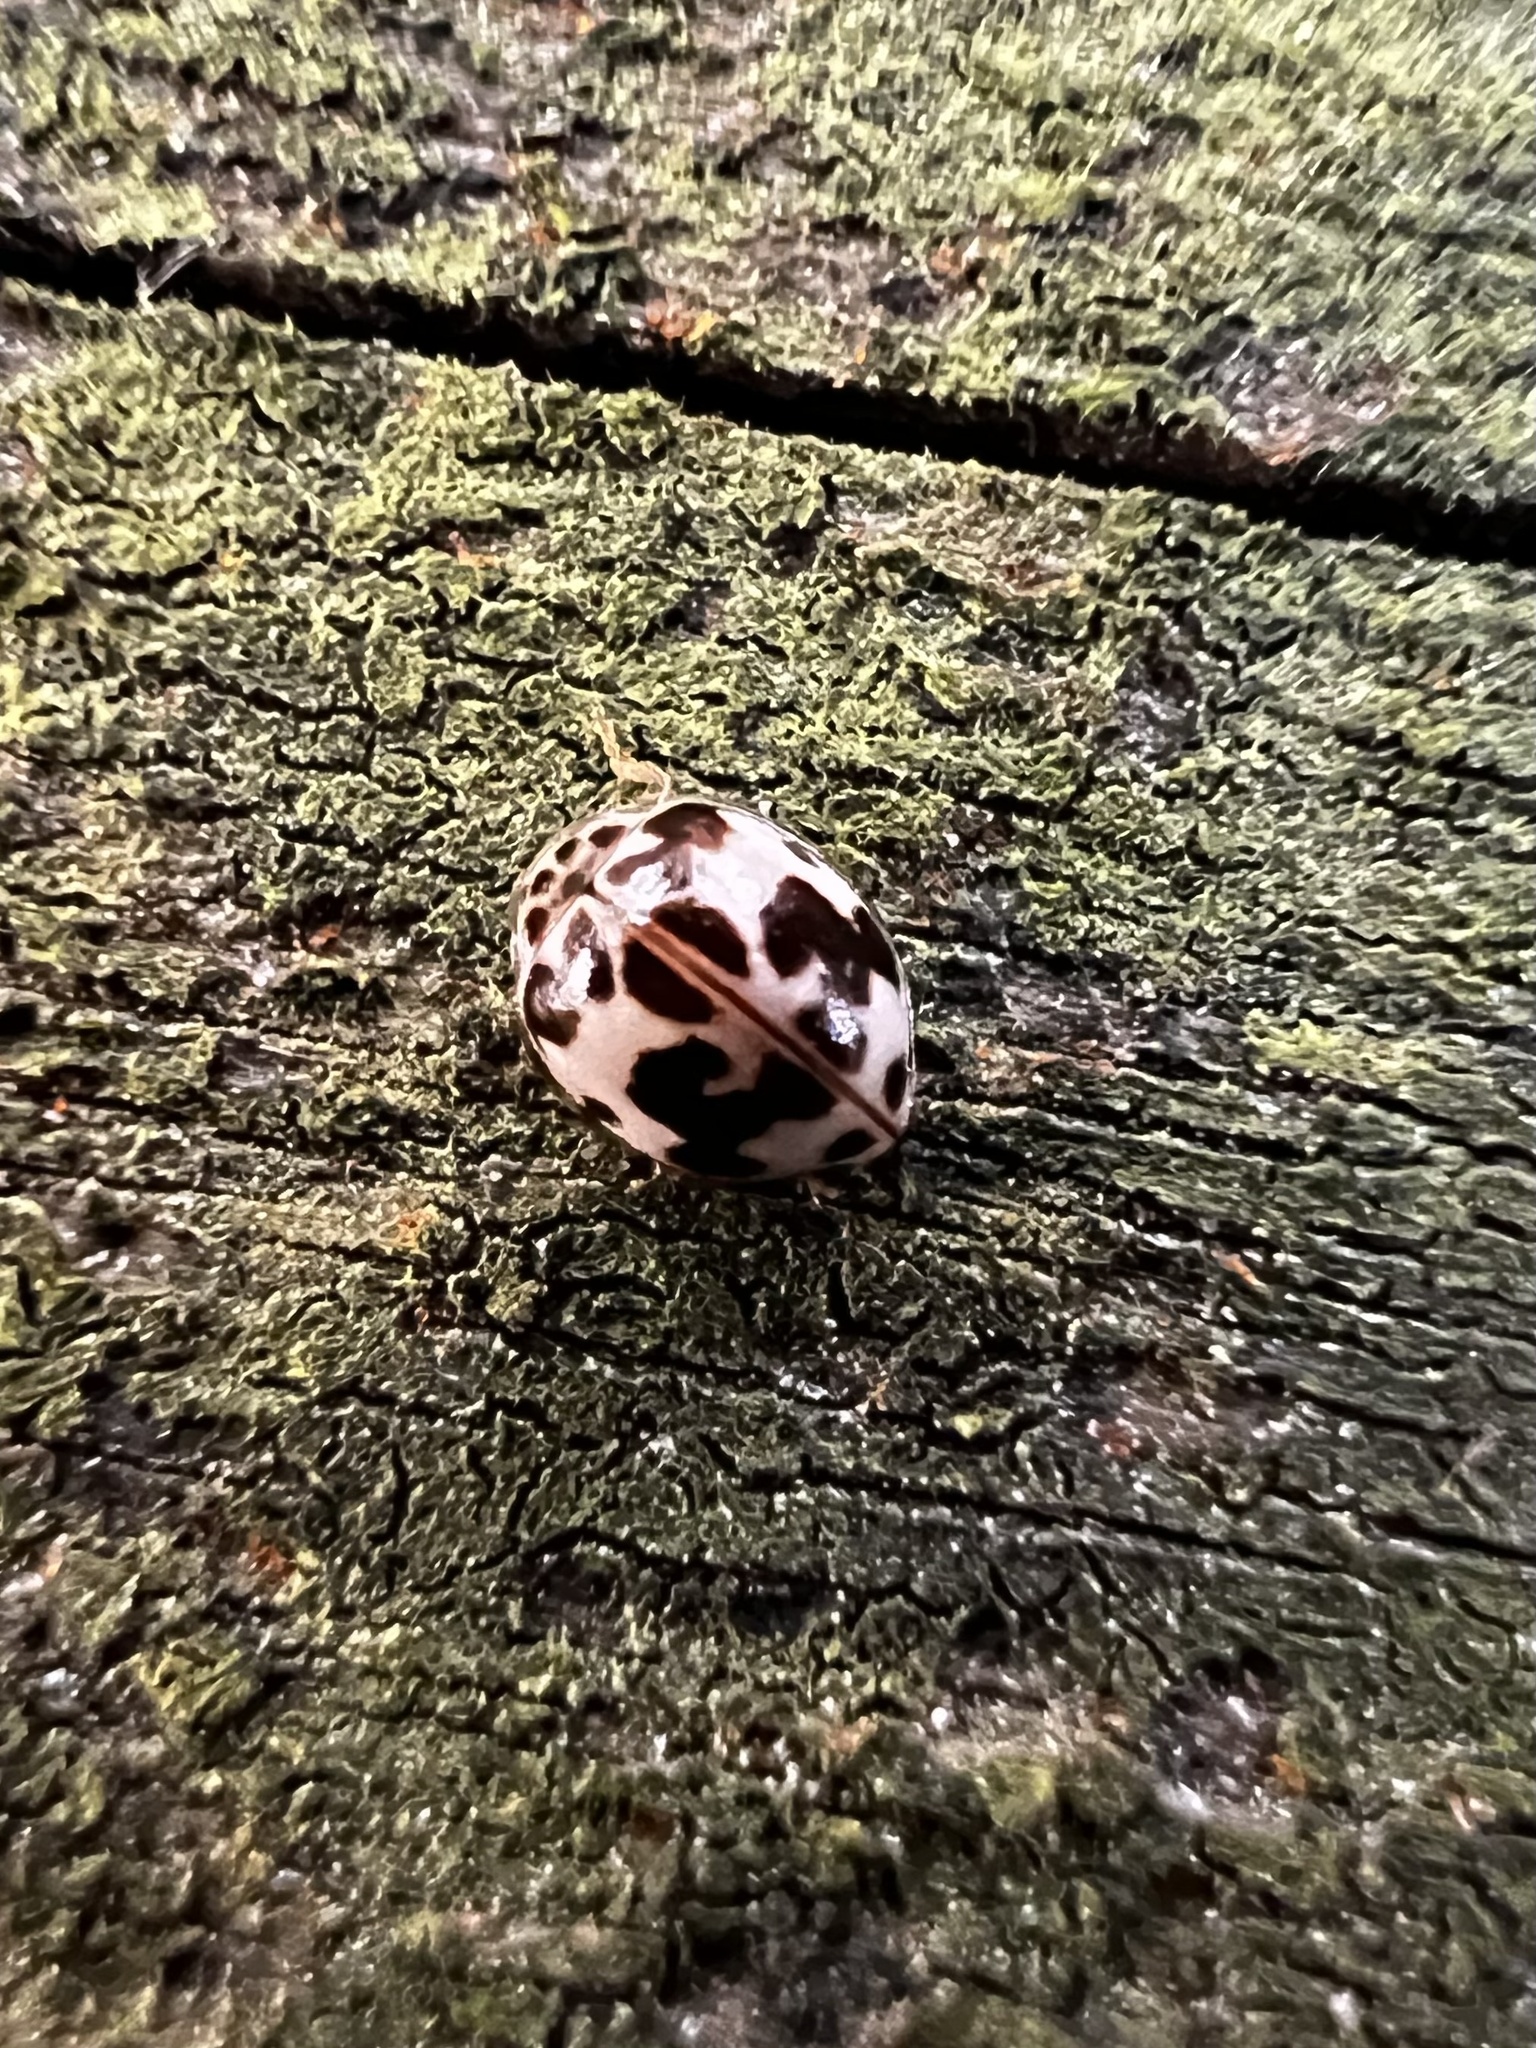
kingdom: Animalia
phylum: Arthropoda
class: Insecta
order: Coleoptera
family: Coccinellidae
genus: Psyllobora
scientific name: Psyllobora borealis
